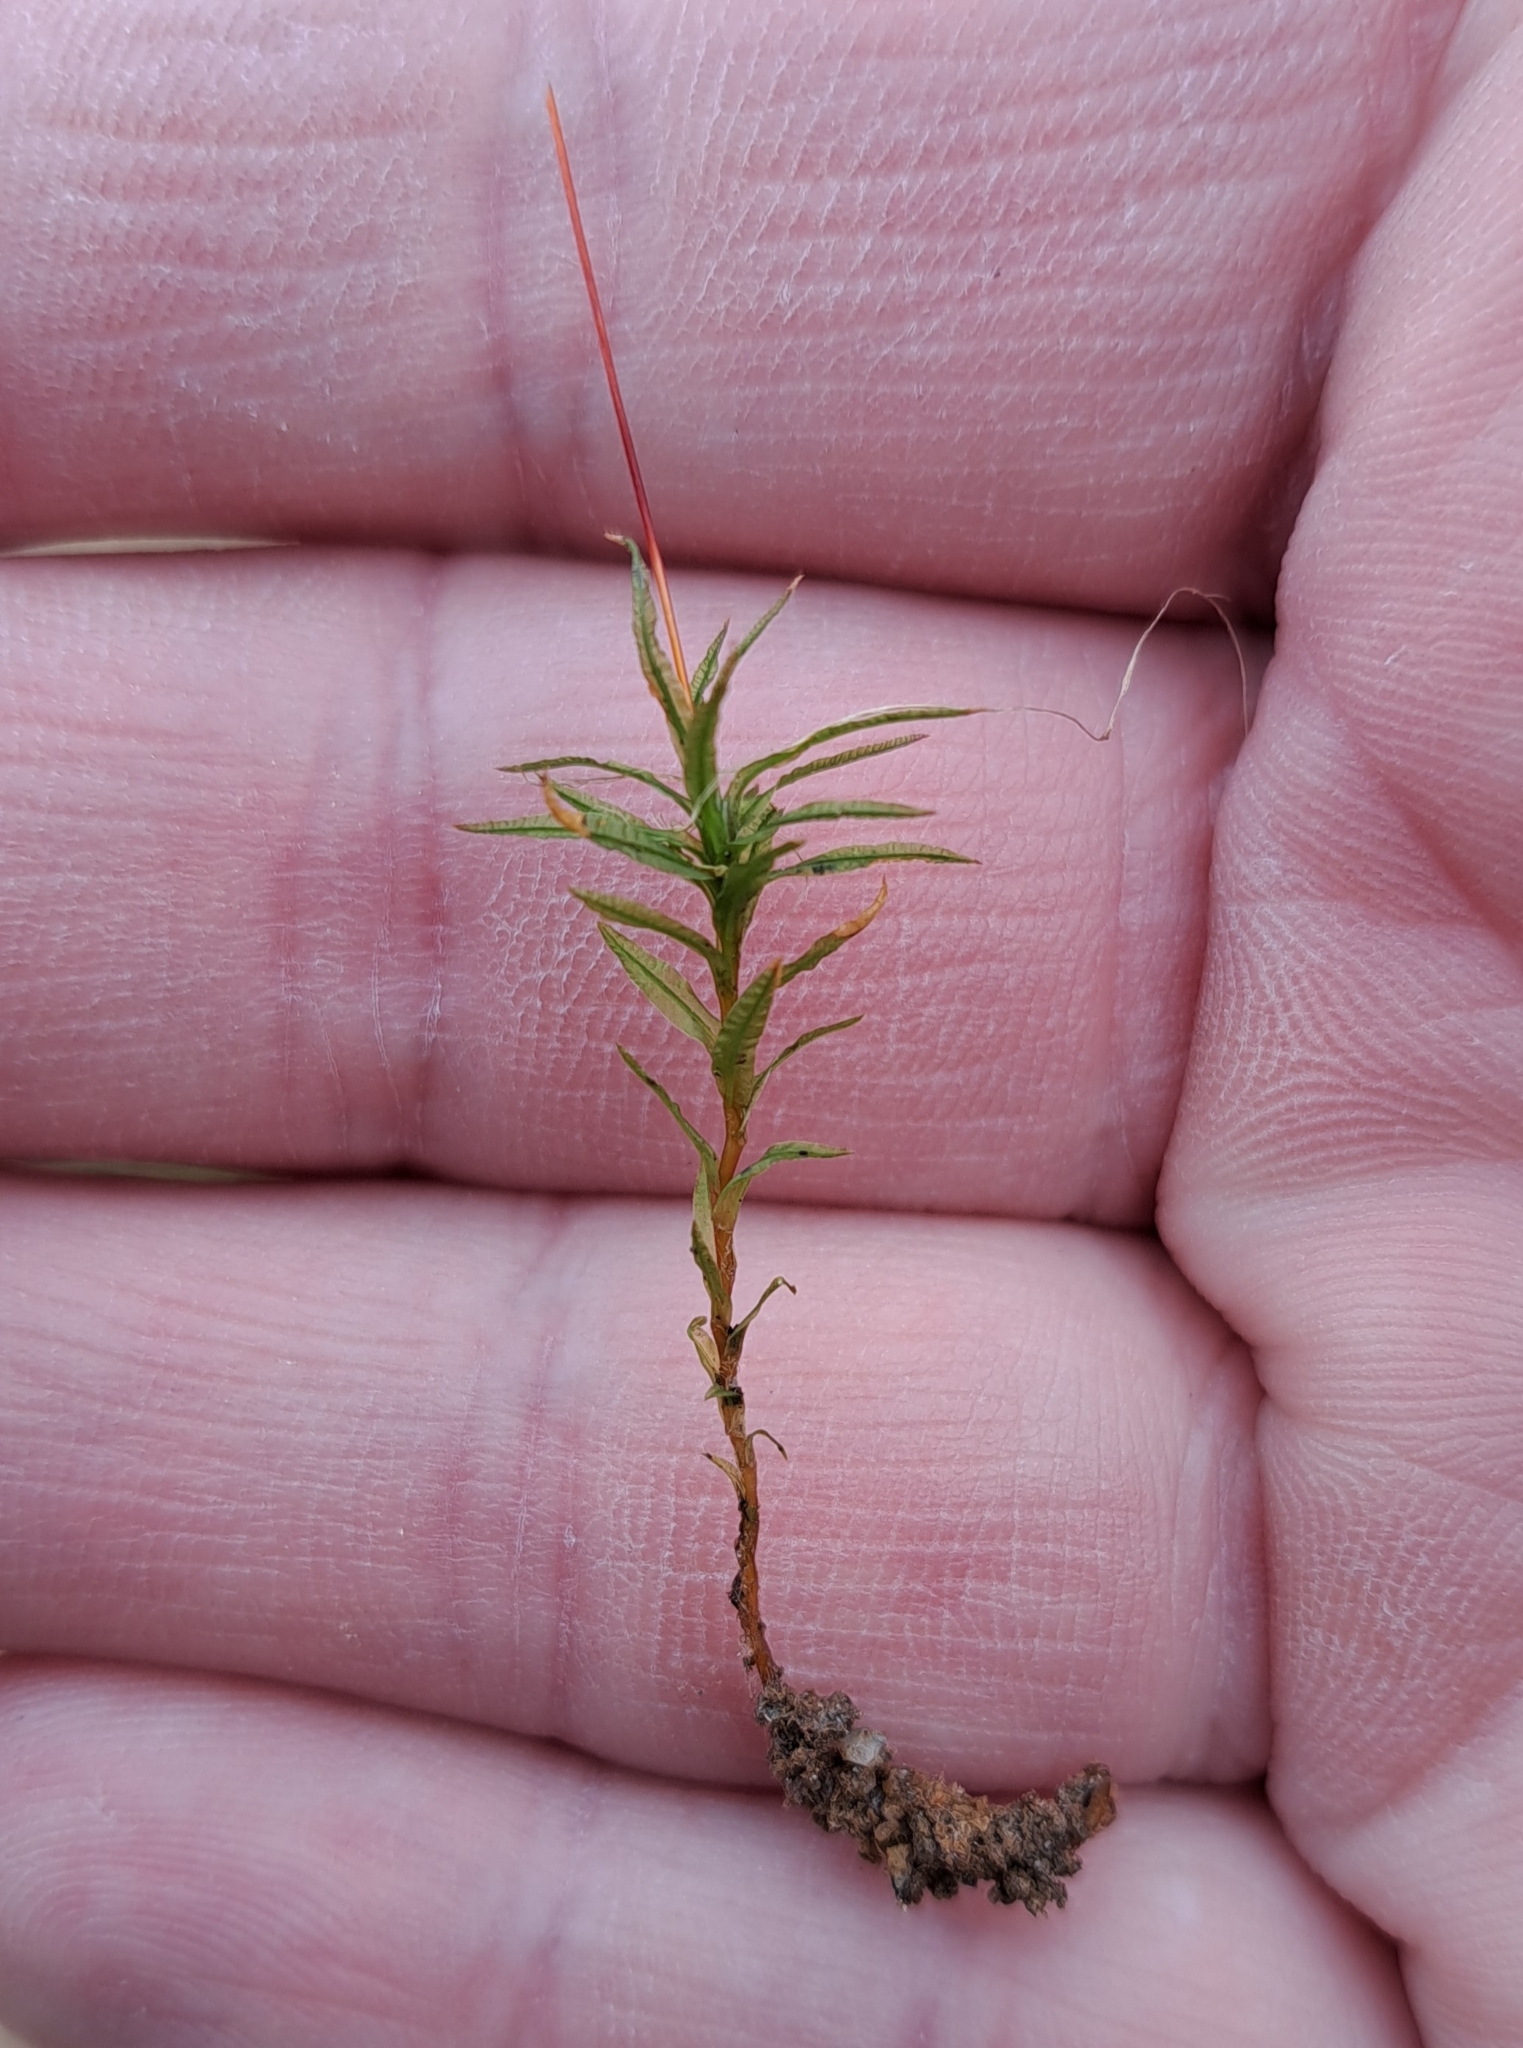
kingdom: Plantae
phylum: Bryophyta
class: Polytrichopsida
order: Polytrichales
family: Polytrichaceae
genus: Atrichum
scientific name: Atrichum undulatum
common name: Common smoothcap
